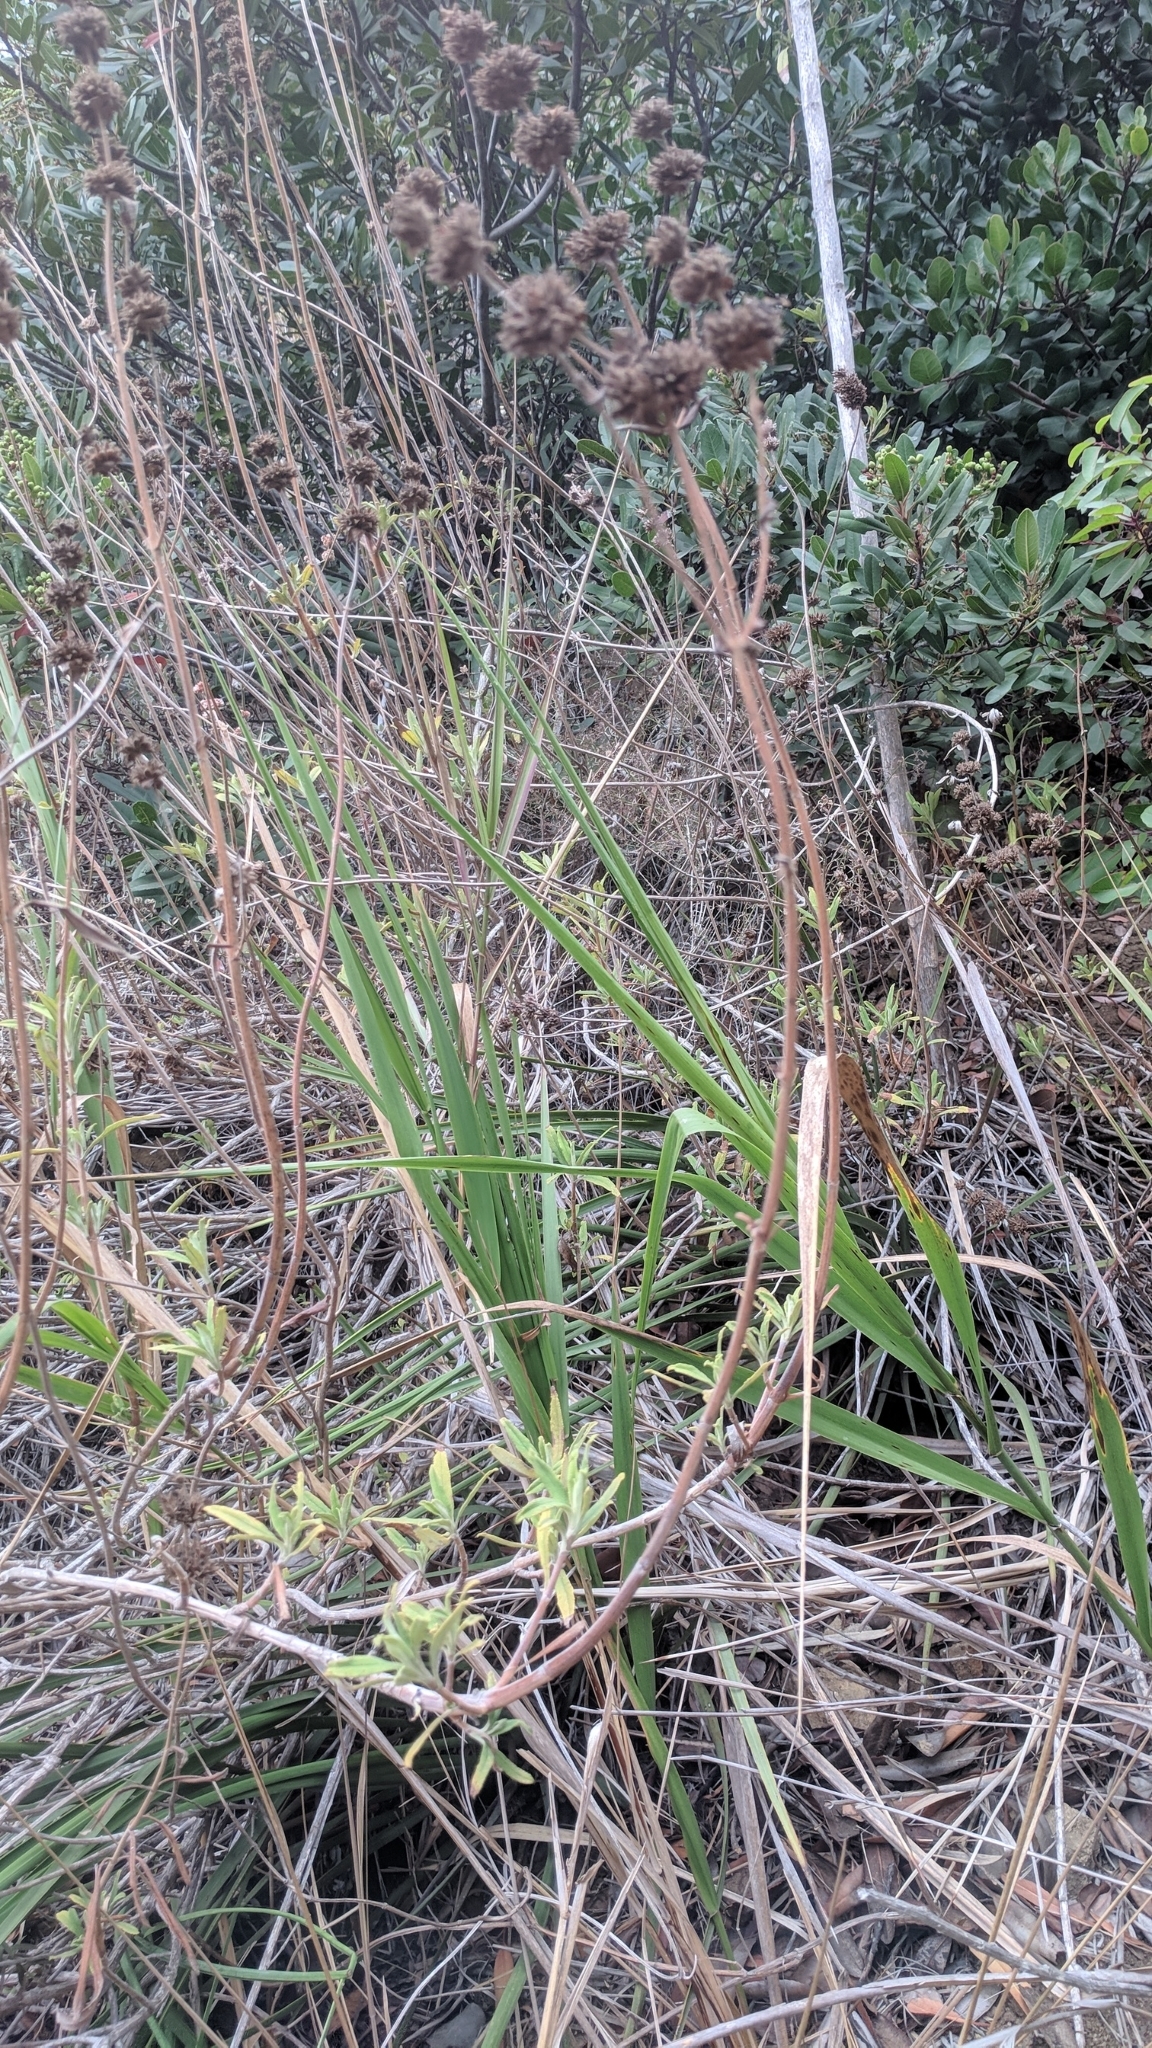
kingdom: Plantae
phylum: Tracheophyta
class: Magnoliopsida
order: Lamiales
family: Lamiaceae
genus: Salvia
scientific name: Salvia mellifera
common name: Black sage
